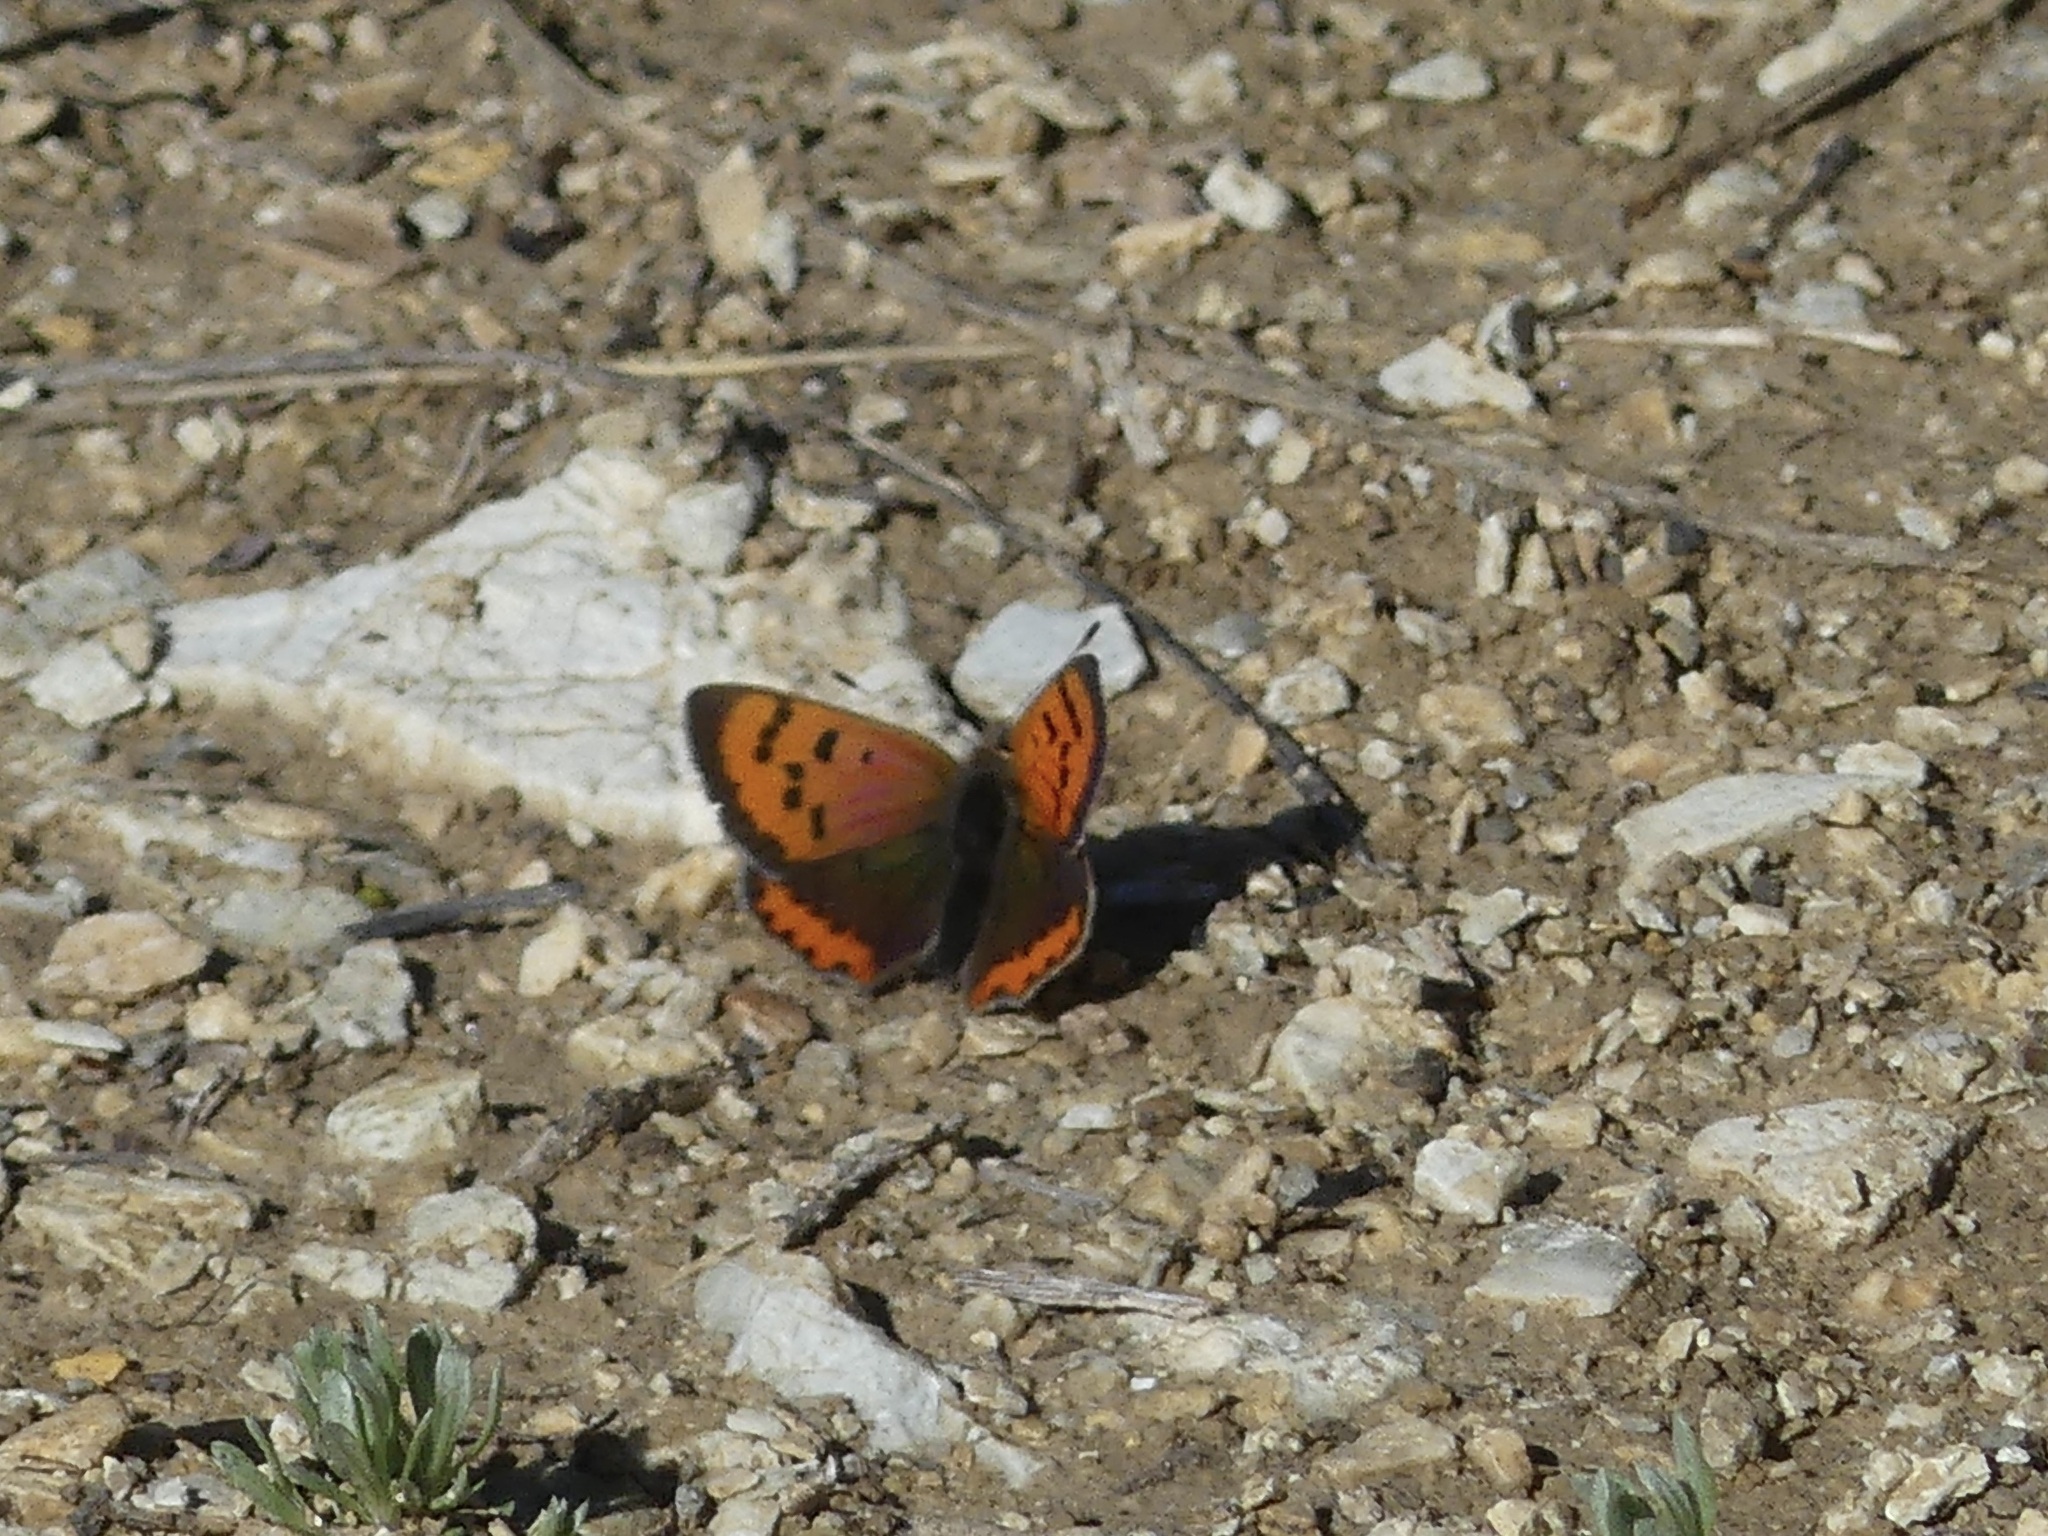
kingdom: Animalia
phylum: Arthropoda
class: Insecta
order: Lepidoptera
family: Lycaenidae
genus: Lycaena
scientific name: Lycaena phlaeas
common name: Small copper
